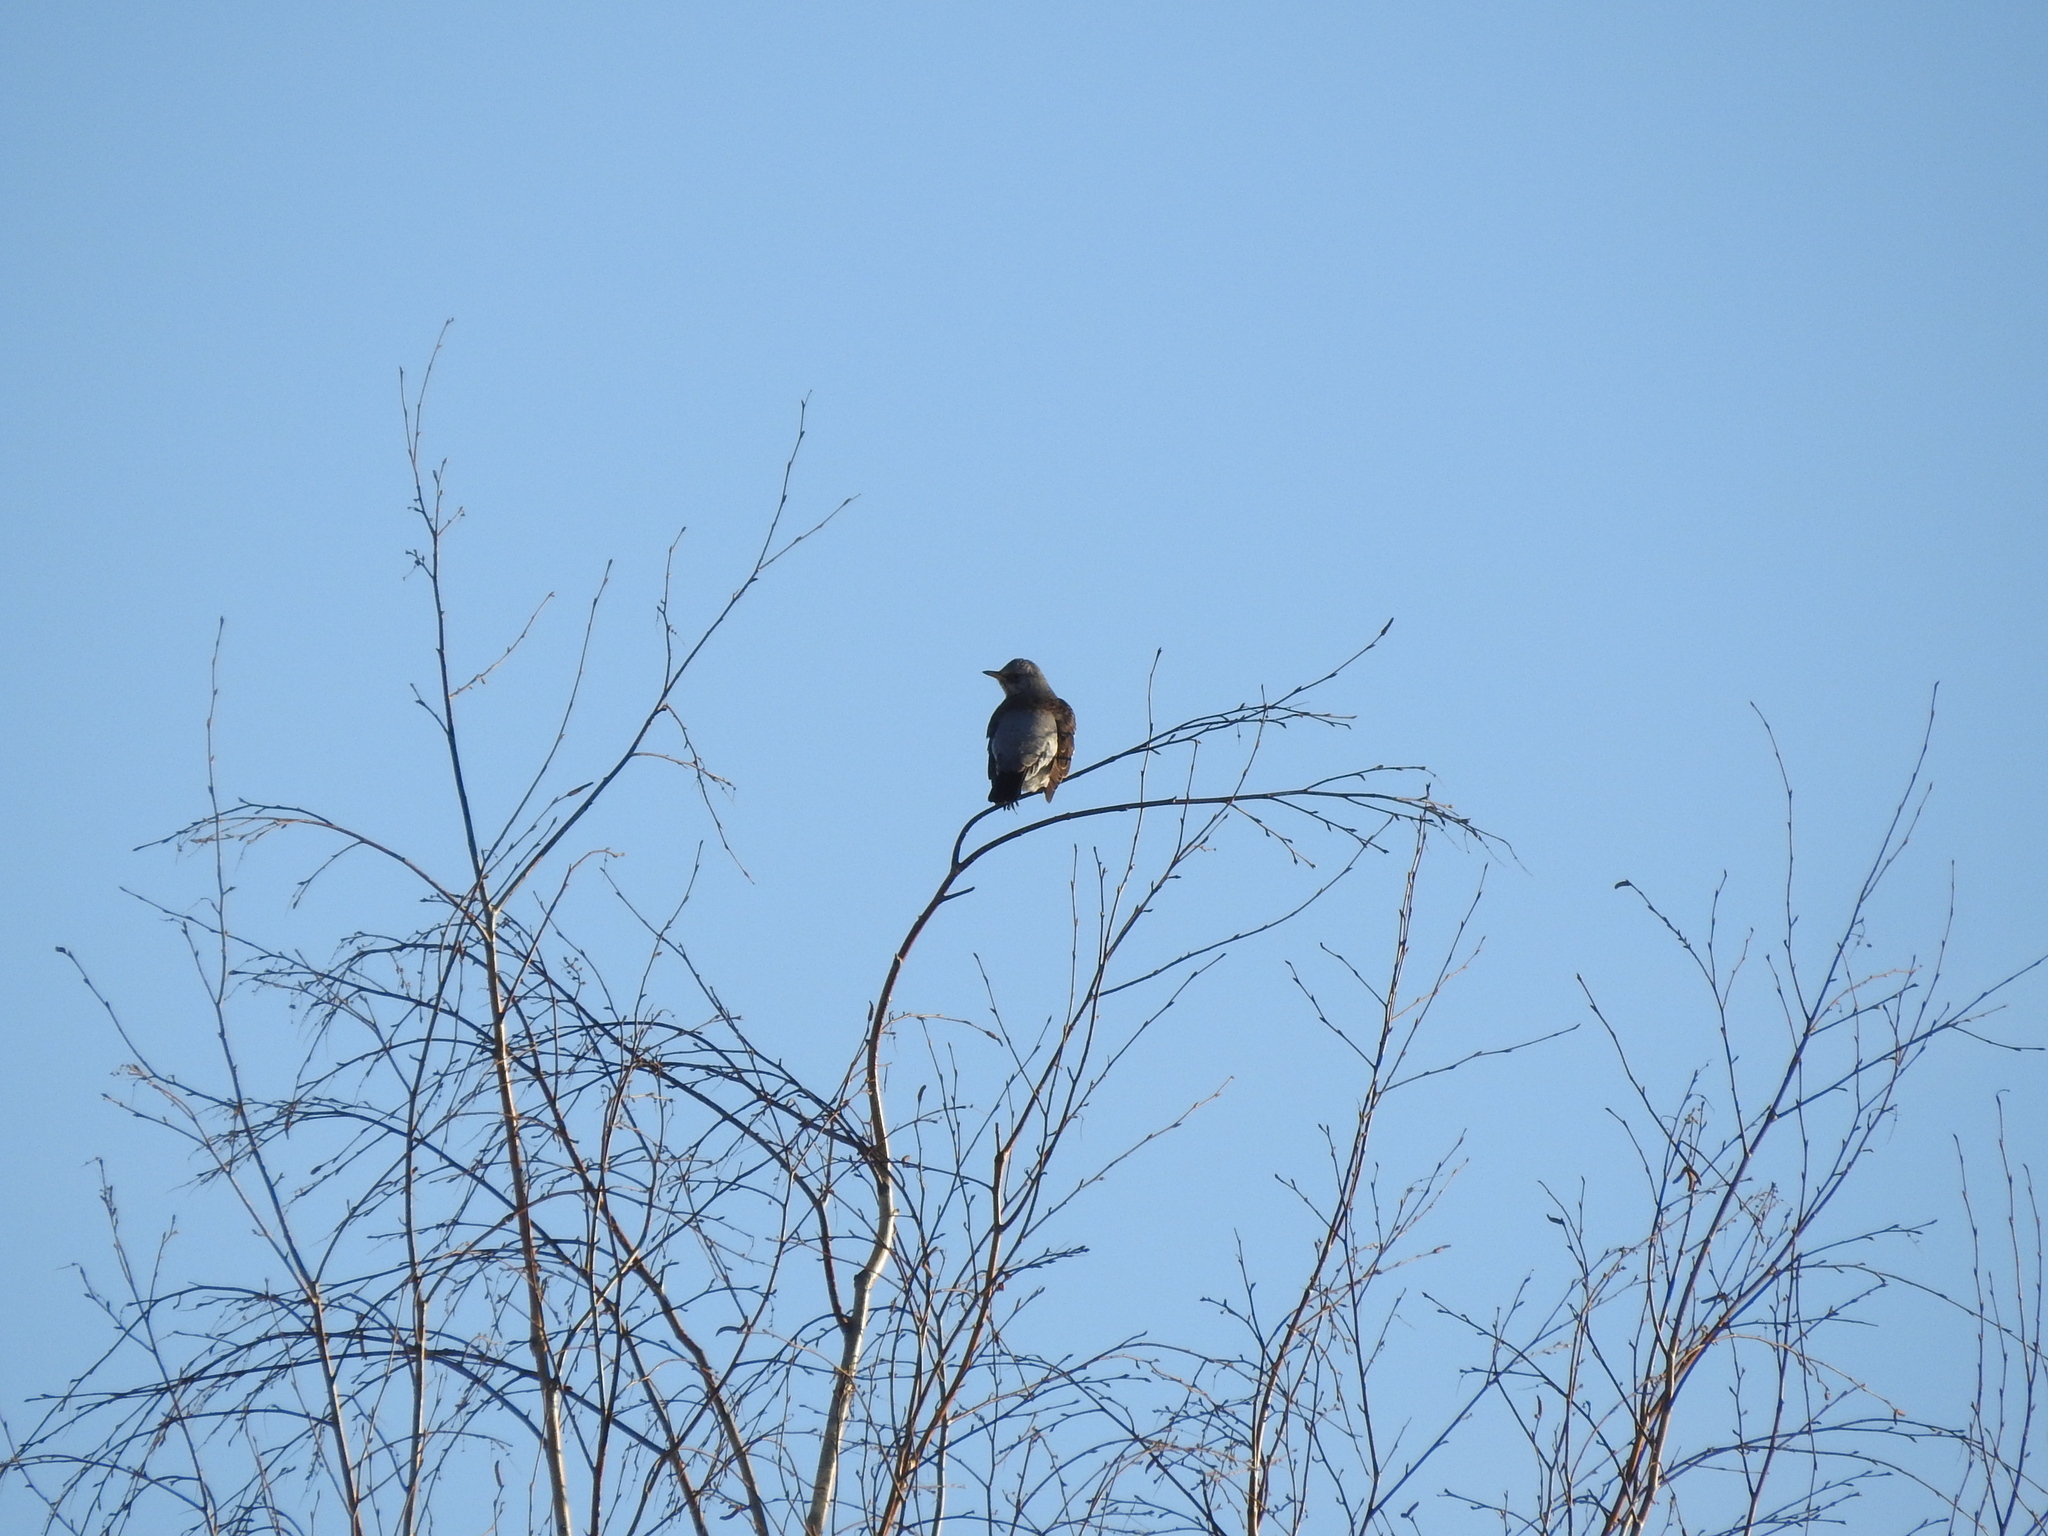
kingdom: Animalia
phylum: Chordata
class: Aves
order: Passeriformes
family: Turdidae
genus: Turdus
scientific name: Turdus pilaris
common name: Fieldfare
